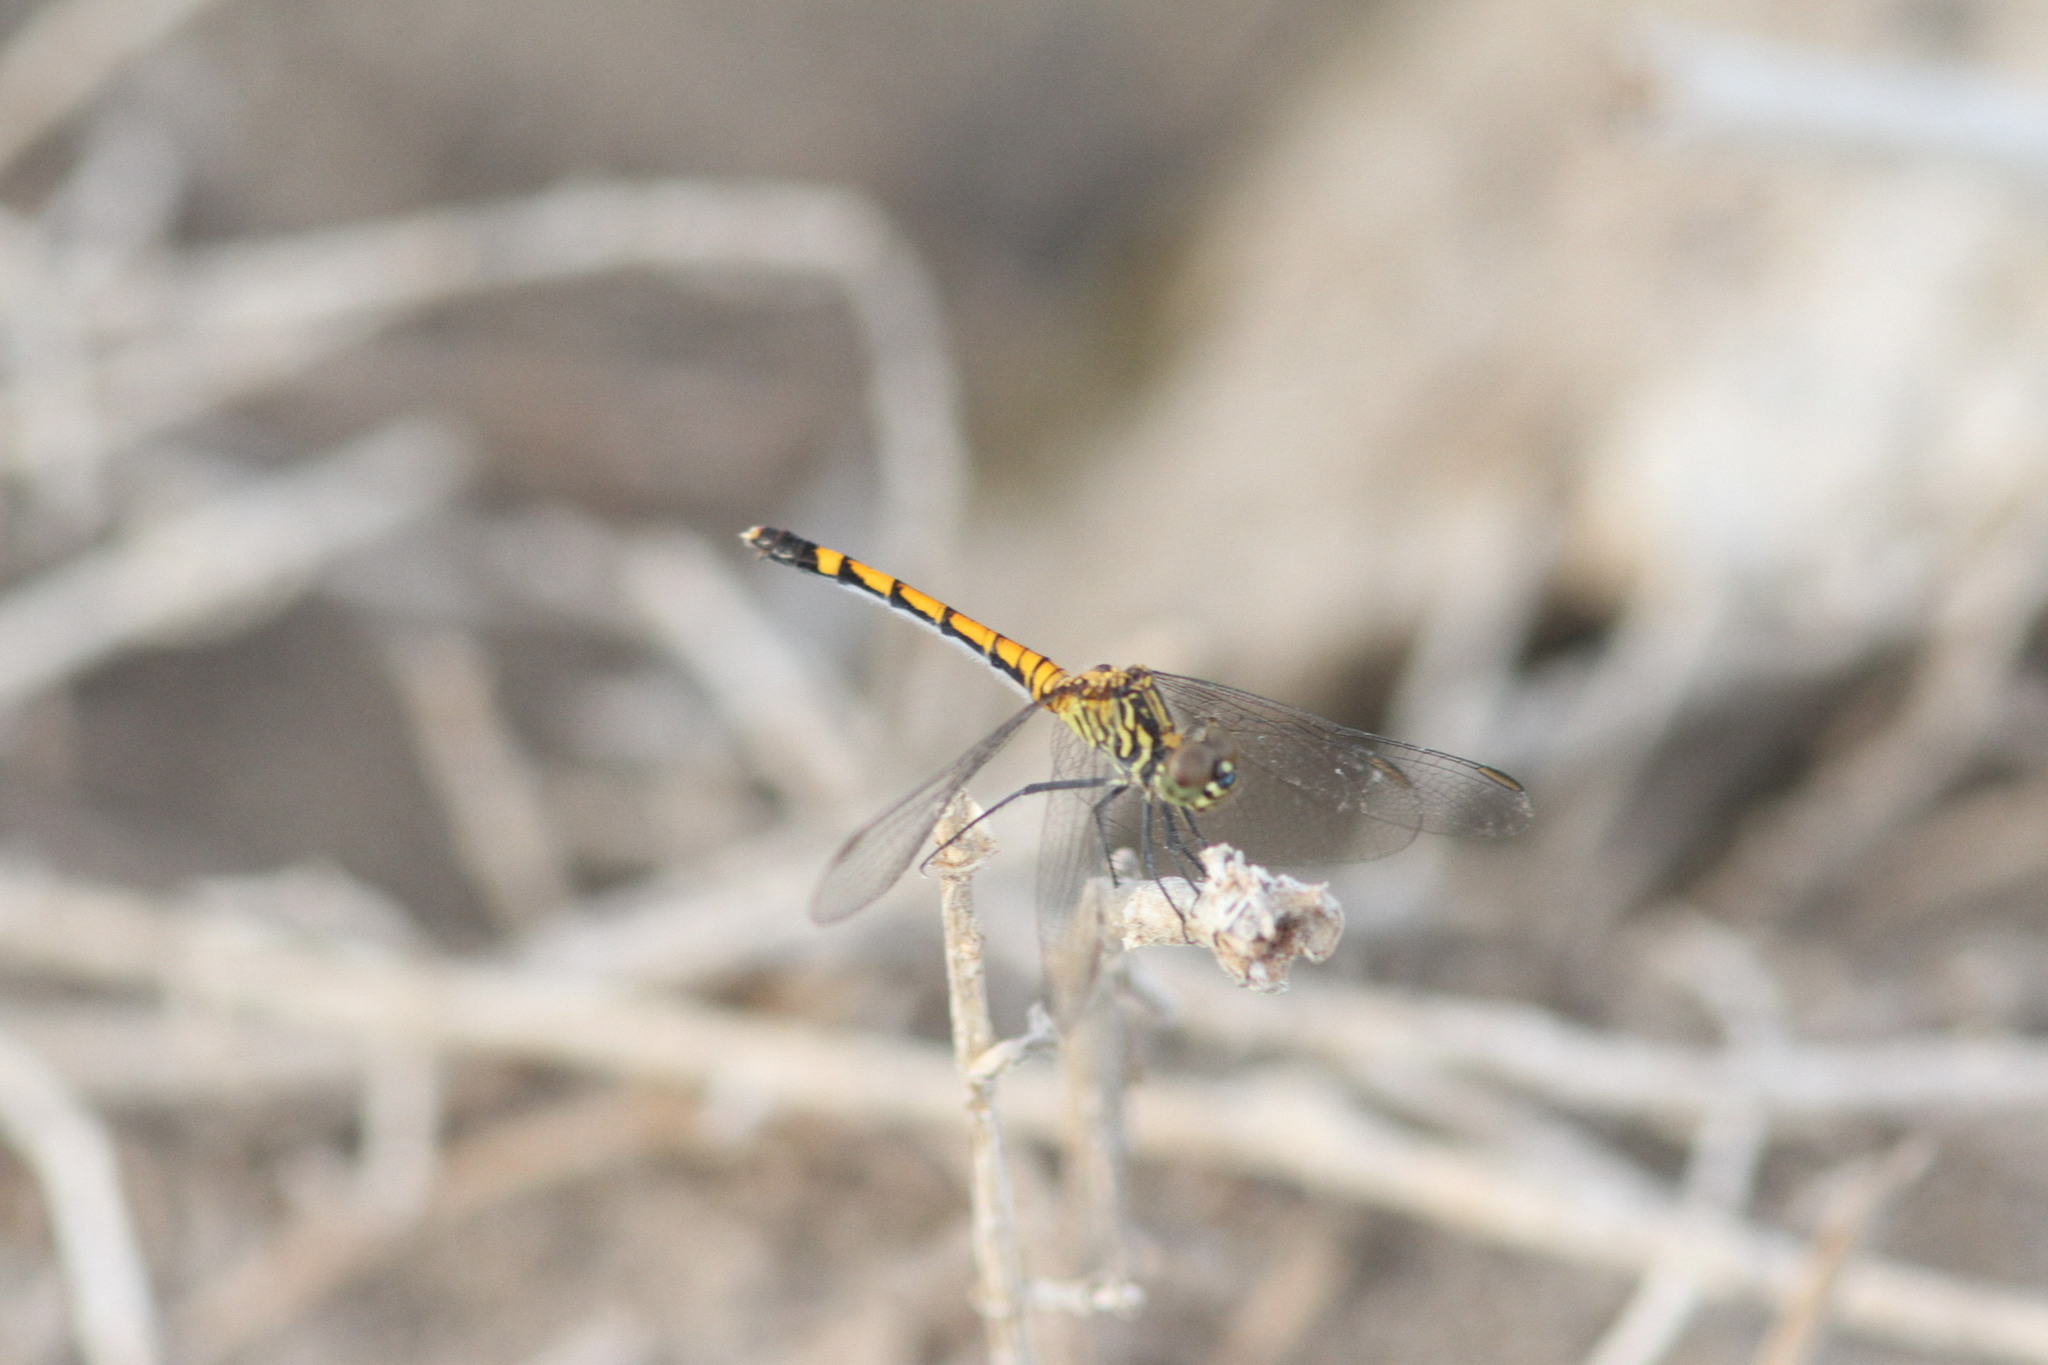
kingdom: Animalia
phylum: Arthropoda
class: Insecta
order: Odonata
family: Libellulidae
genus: Erythrodiplax
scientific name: Erythrodiplax berenice
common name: Seaside dragonlet
